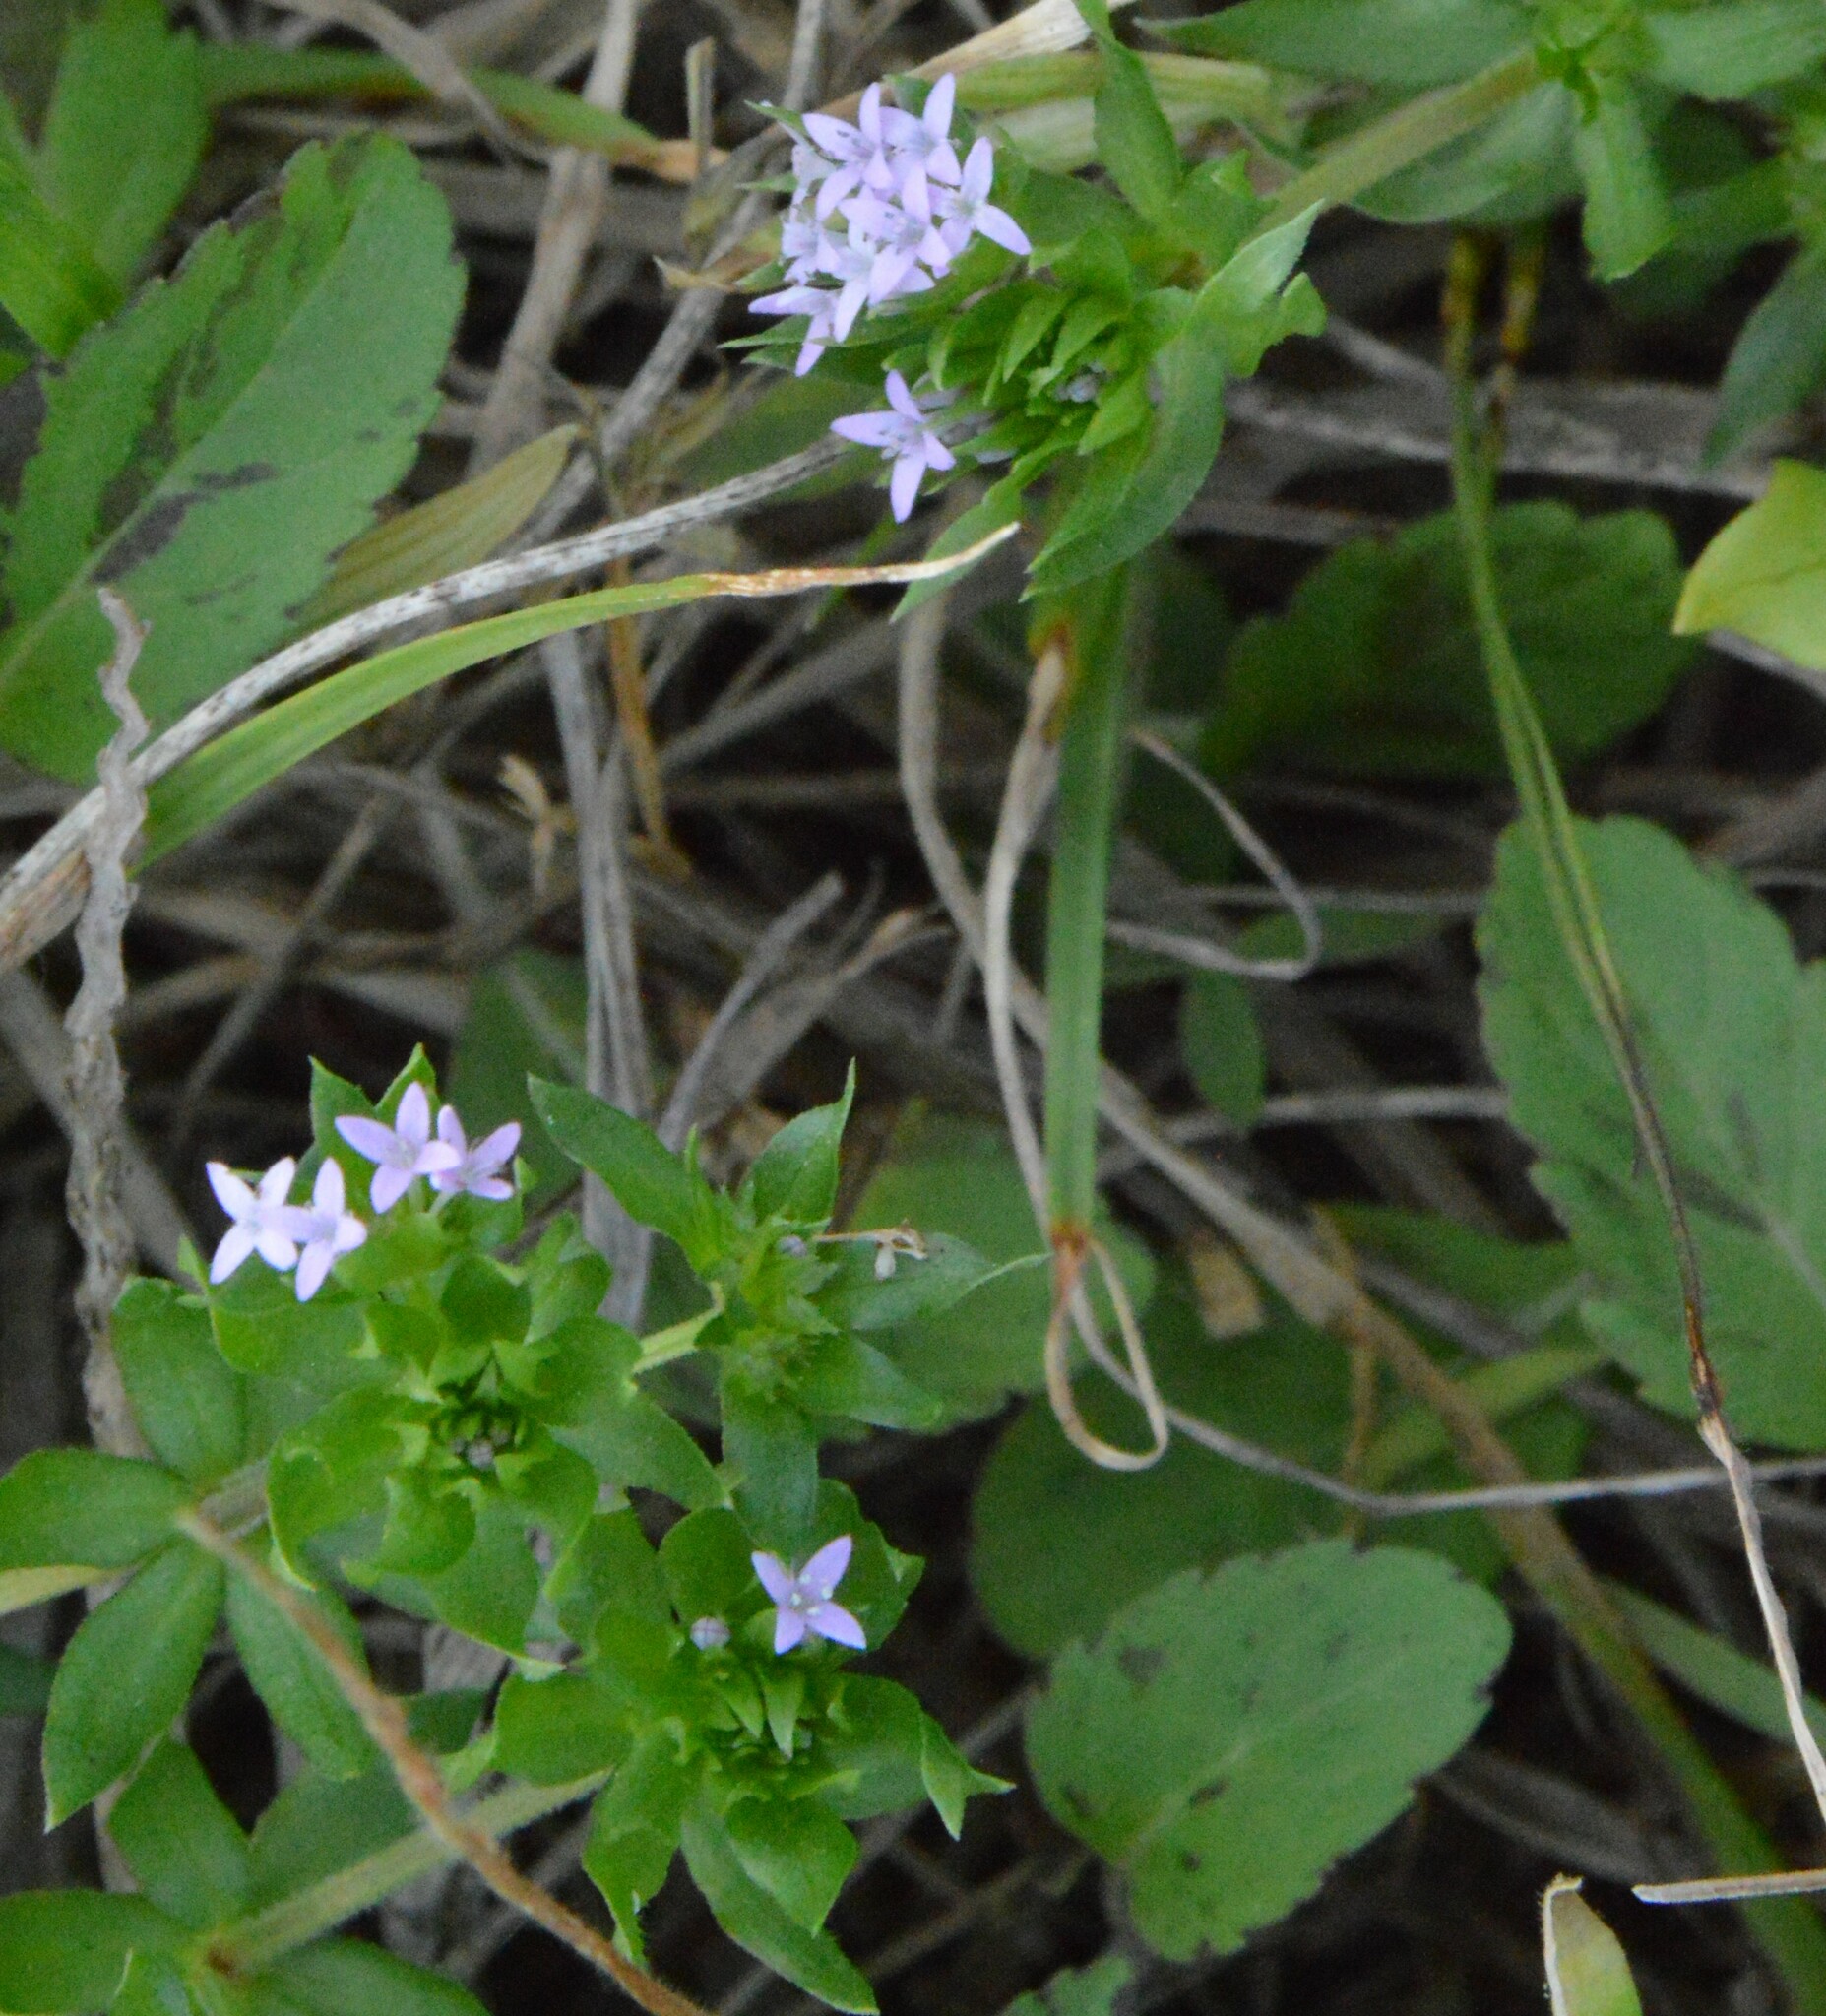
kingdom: Plantae
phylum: Tracheophyta
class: Magnoliopsida
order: Gentianales
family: Rubiaceae
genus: Sherardia
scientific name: Sherardia arvensis
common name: Field madder
